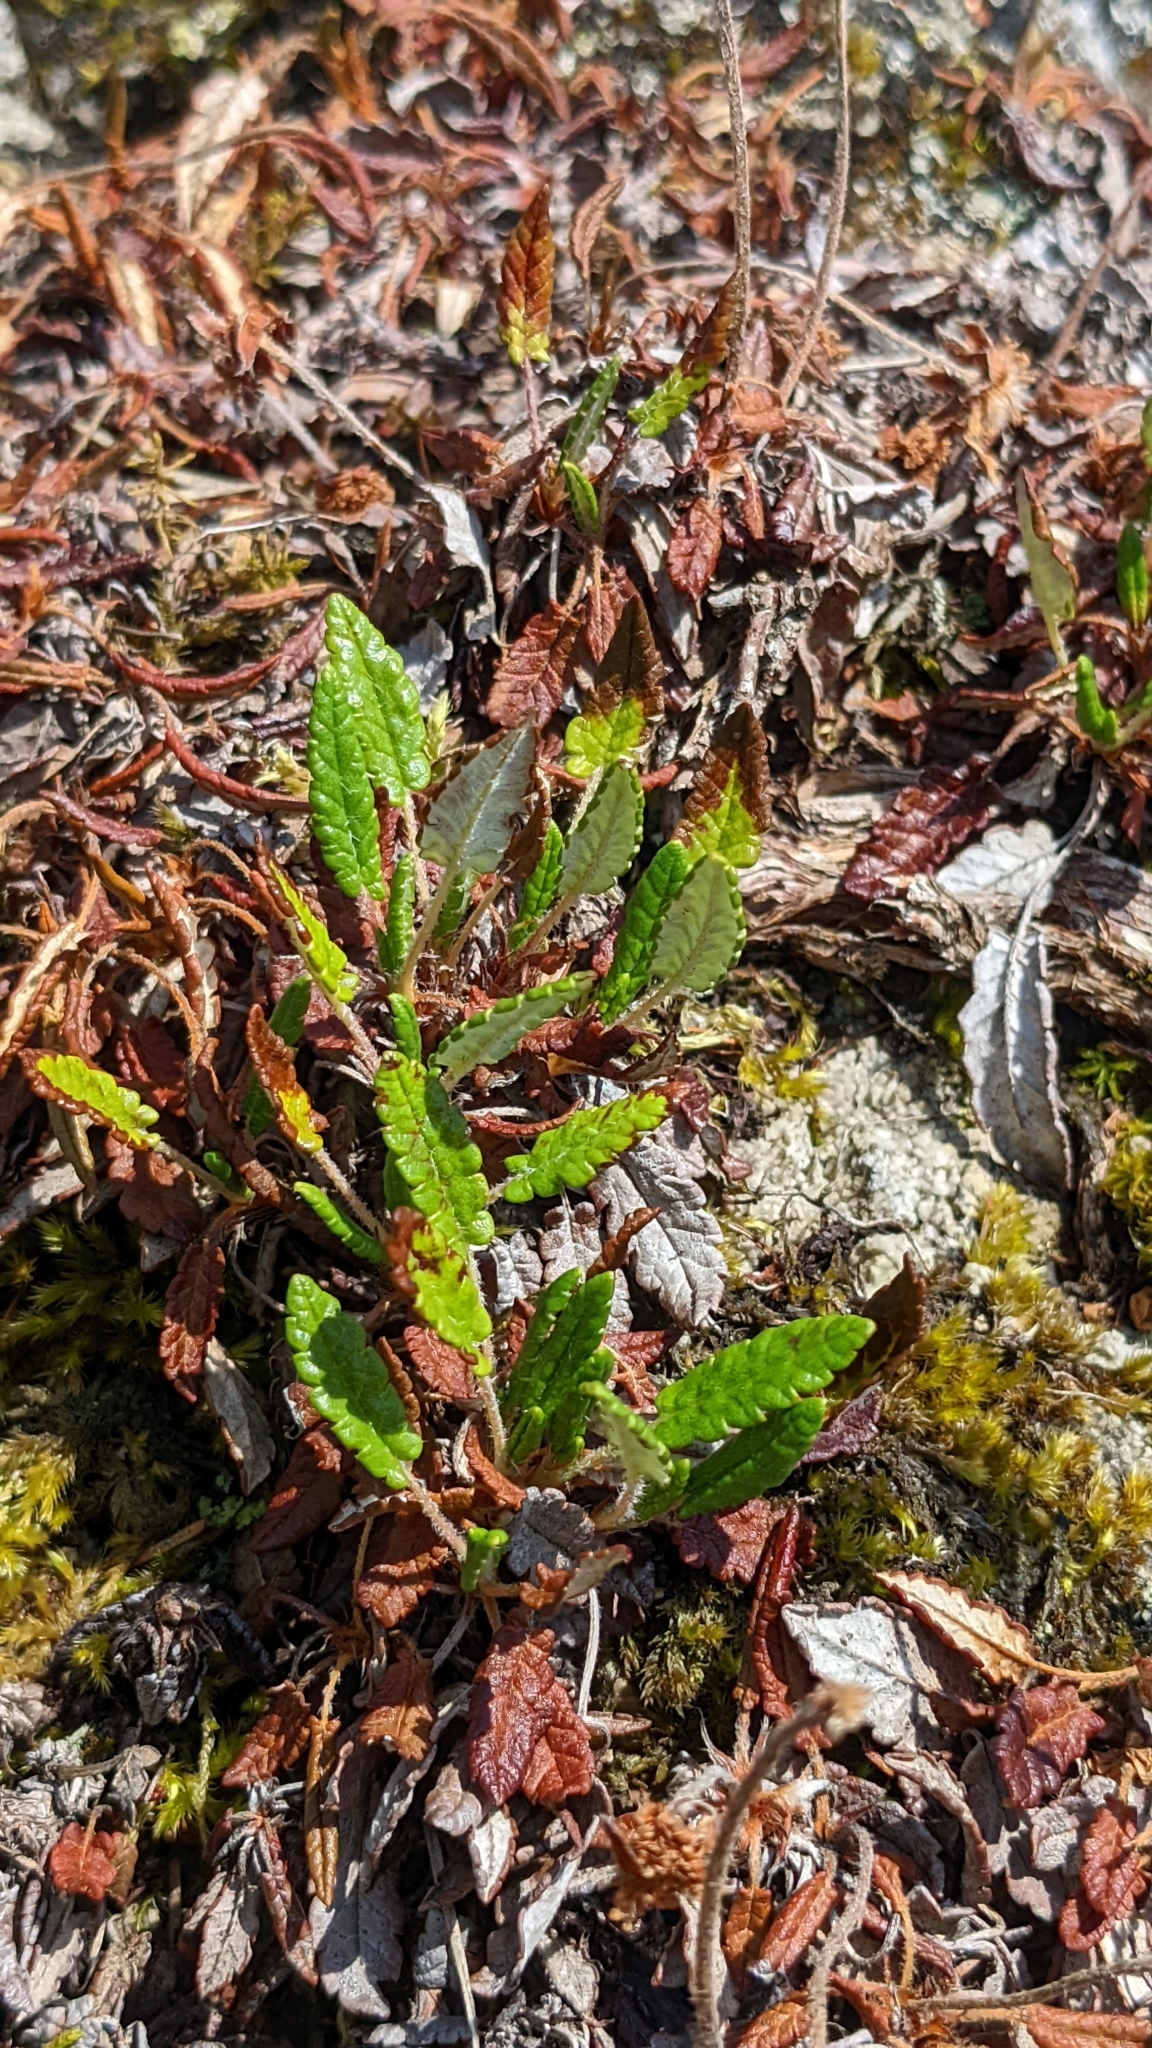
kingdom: Plantae
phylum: Tracheophyta
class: Magnoliopsida
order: Rosales
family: Rosaceae
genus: Dryas
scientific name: Dryas octopetala
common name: Eight-petal mountain-avens
